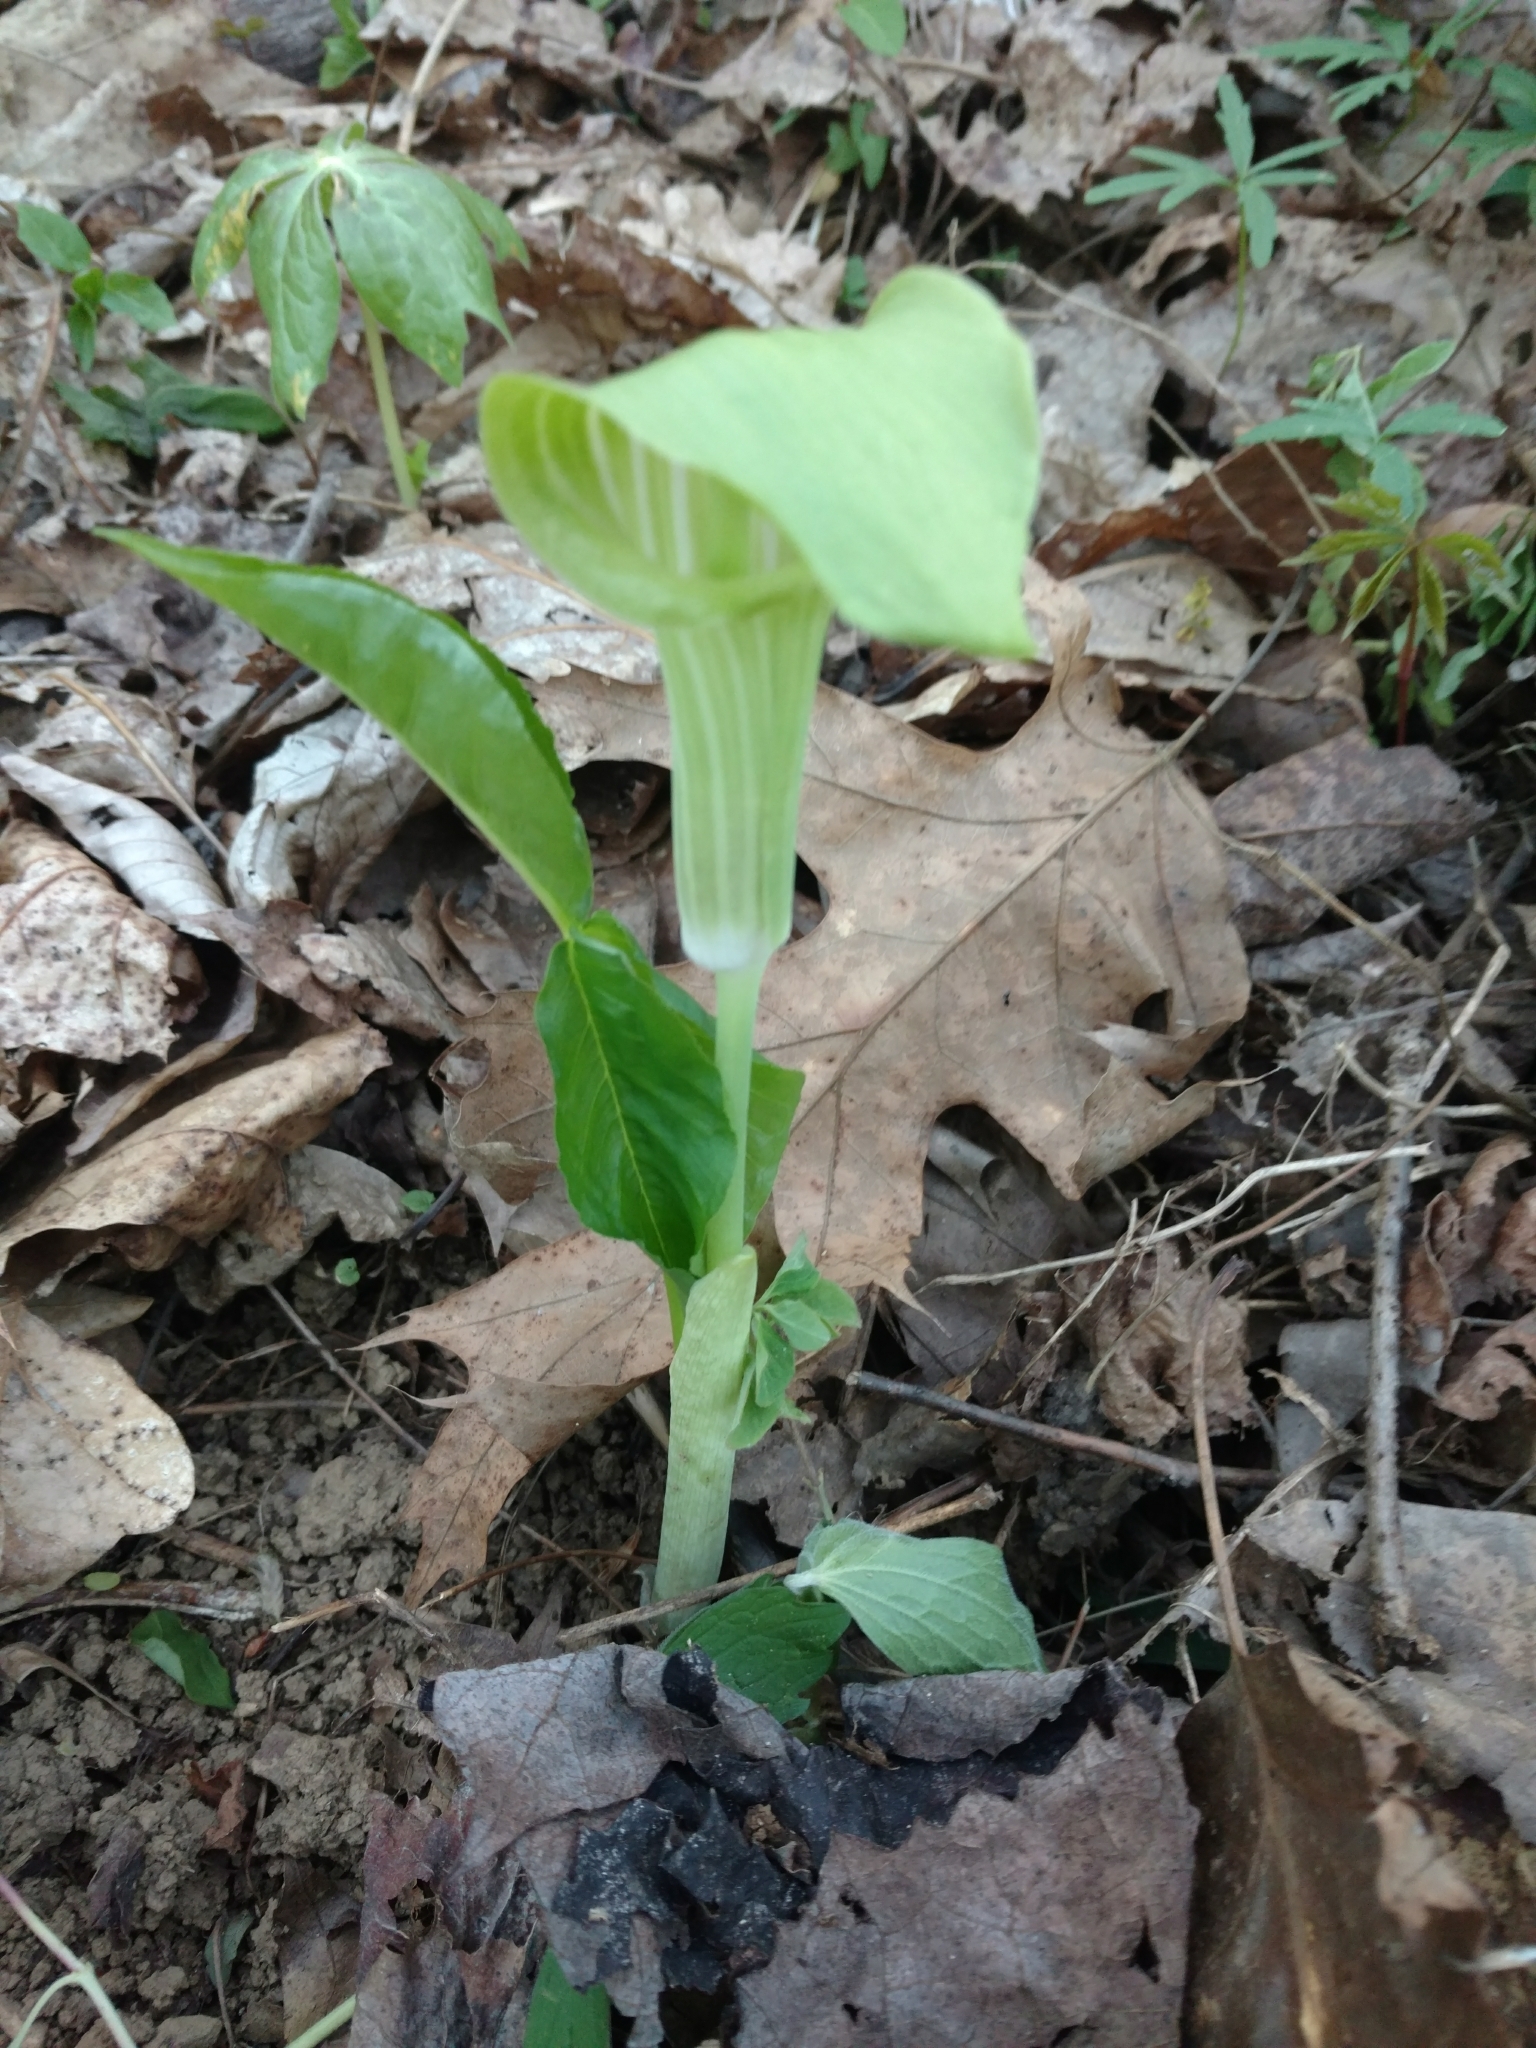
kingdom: Plantae
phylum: Tracheophyta
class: Liliopsida
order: Alismatales
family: Araceae
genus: Arisaema
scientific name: Arisaema triphyllum
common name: Jack-in-the-pulpit
